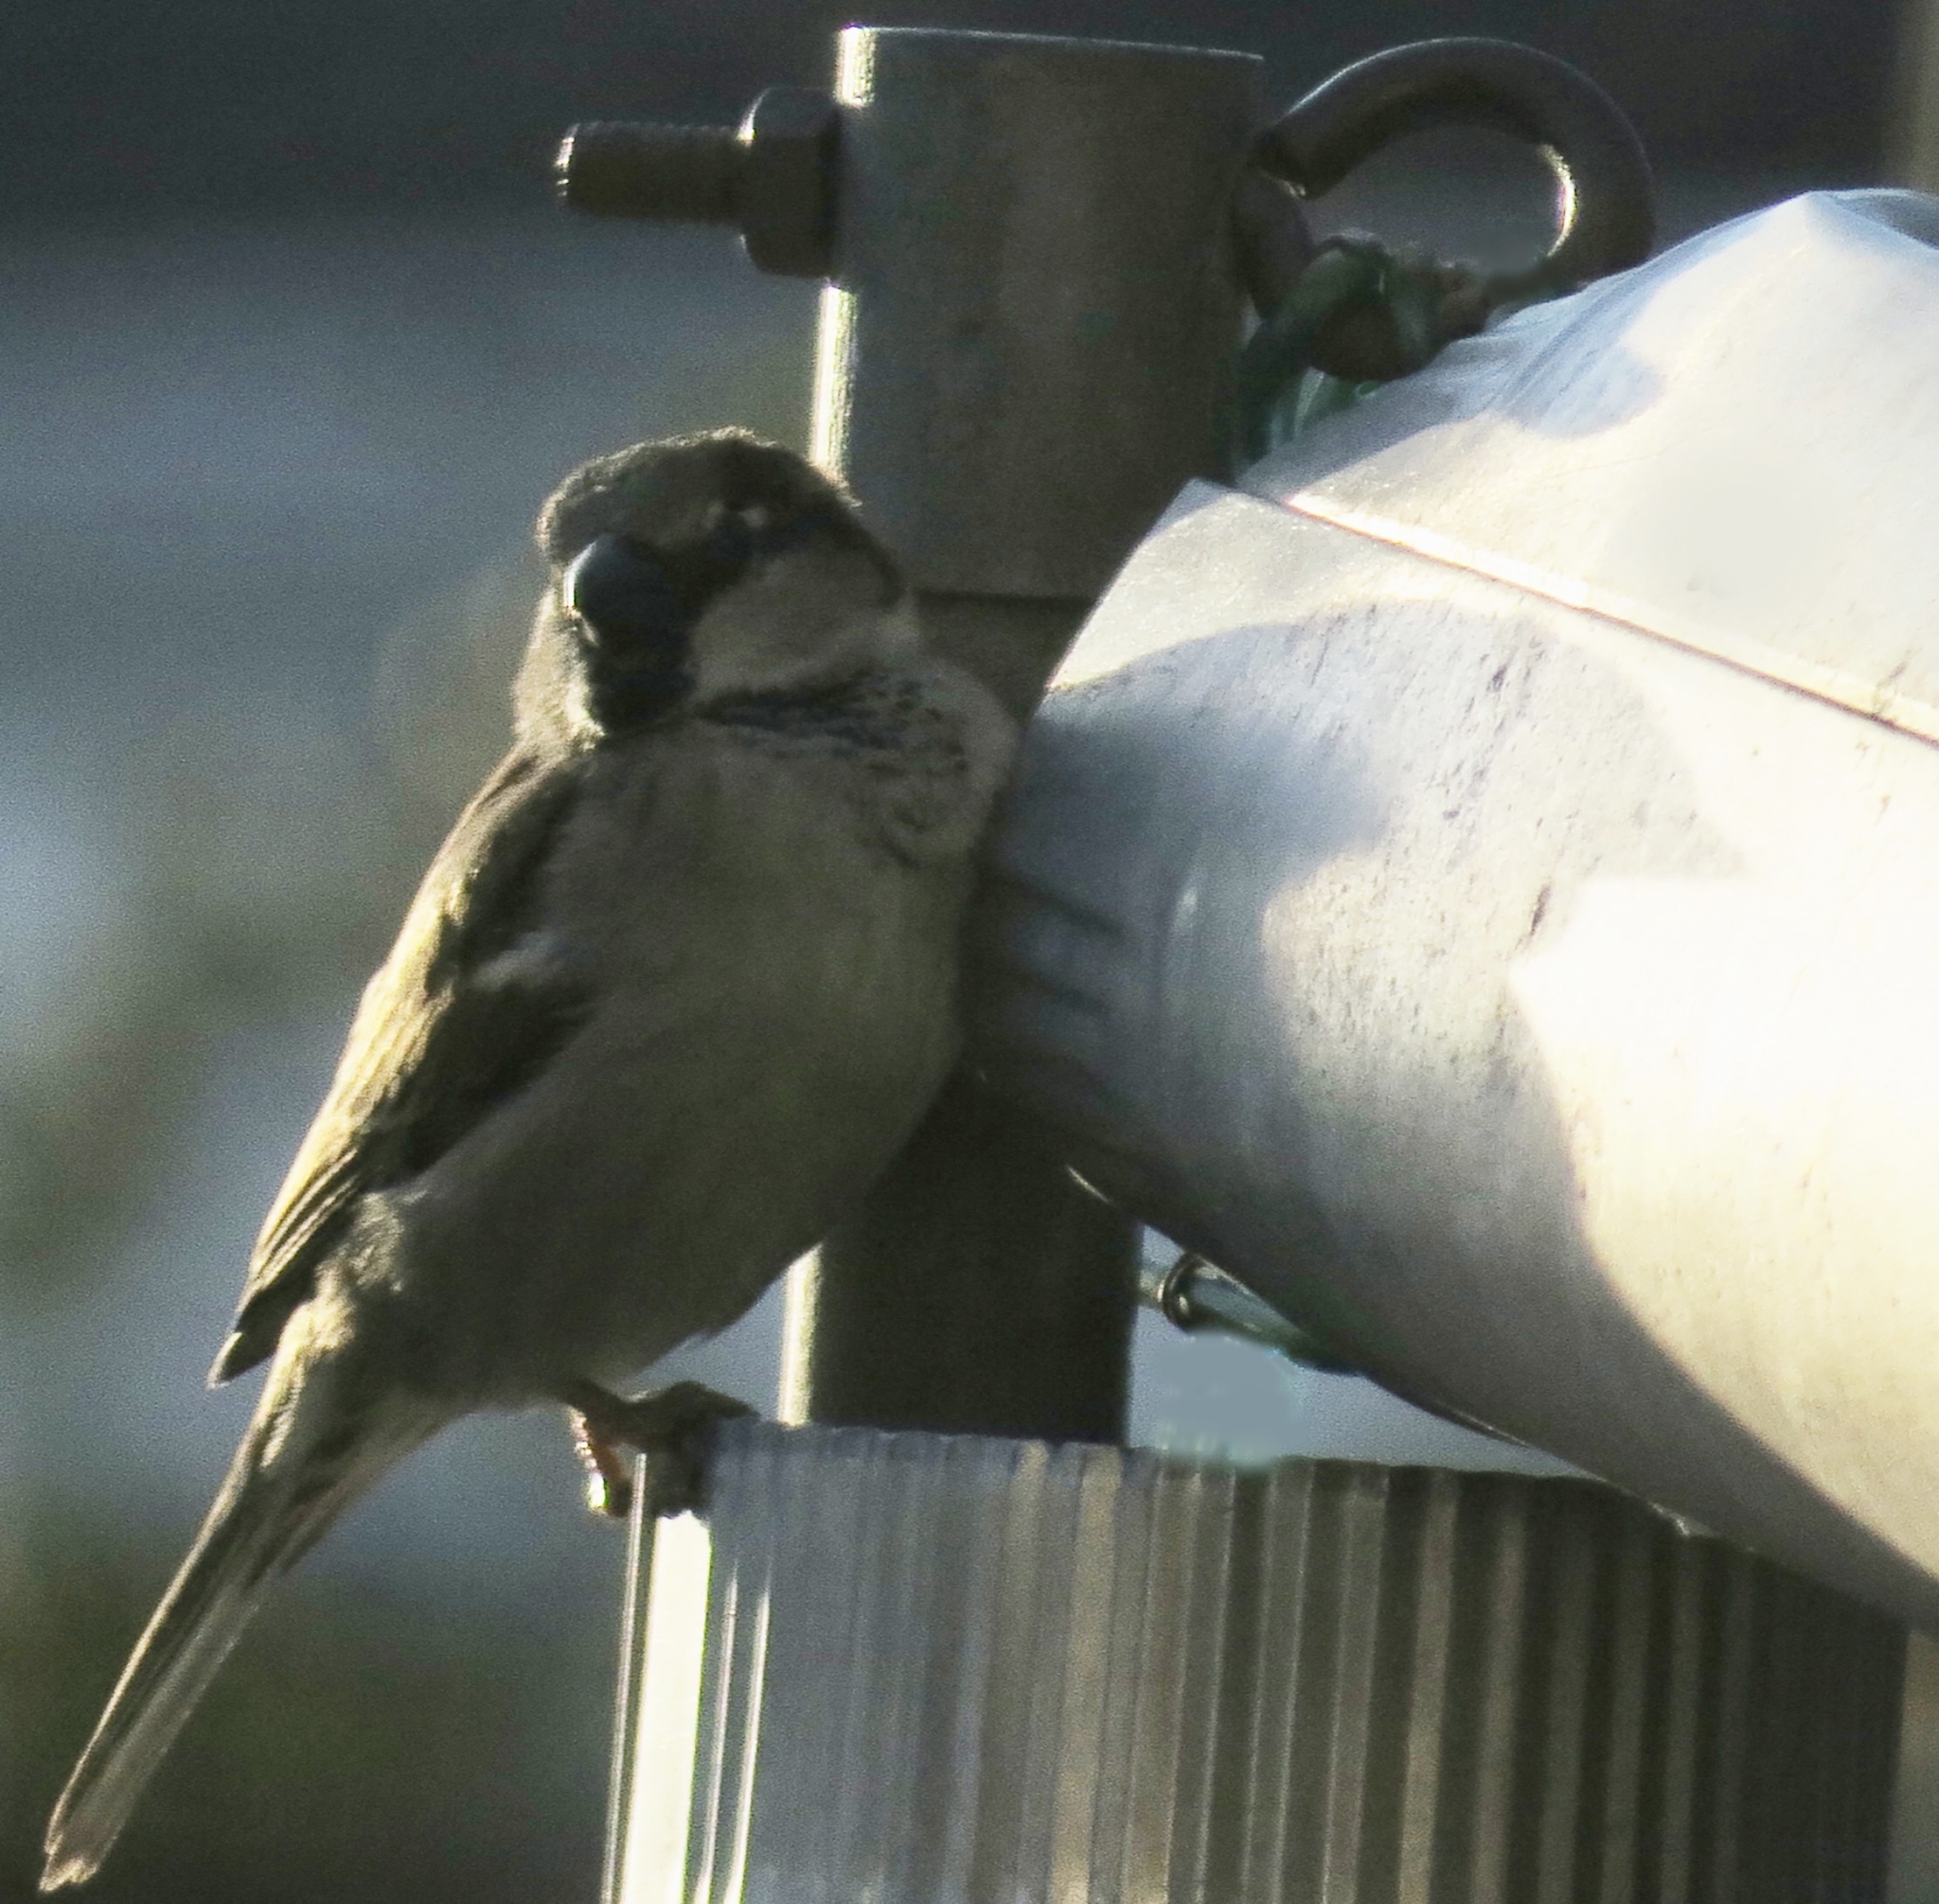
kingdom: Animalia
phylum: Chordata
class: Aves
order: Passeriformes
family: Passeridae
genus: Passer
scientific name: Passer domesticus
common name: House sparrow
